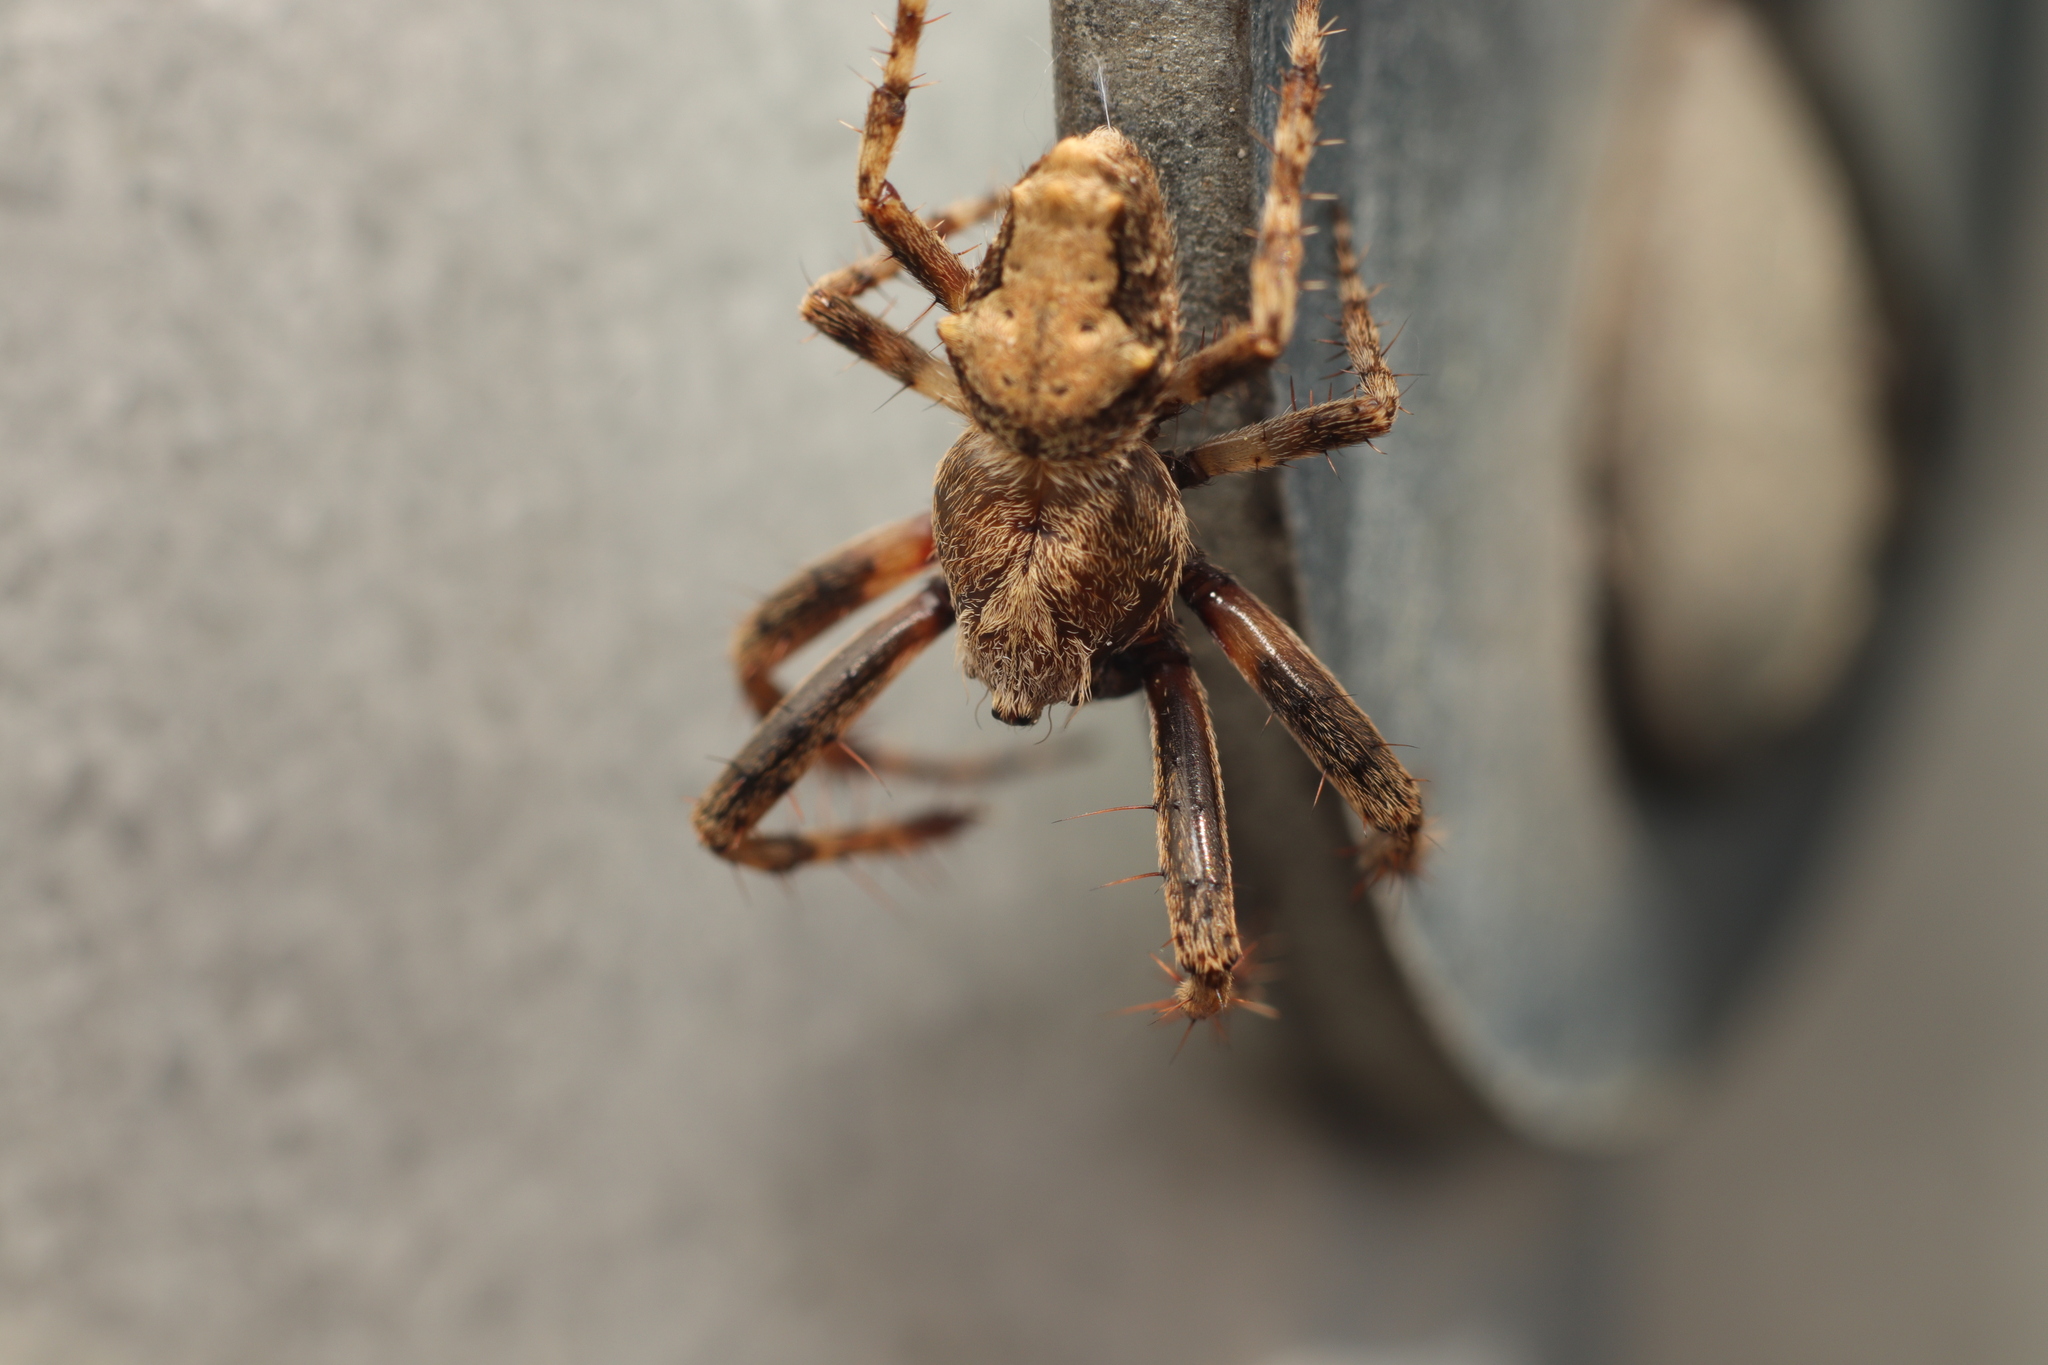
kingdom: Animalia
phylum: Arthropoda
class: Arachnida
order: Araneae
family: Araneidae
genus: Eriophora
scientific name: Eriophora pustulosa
